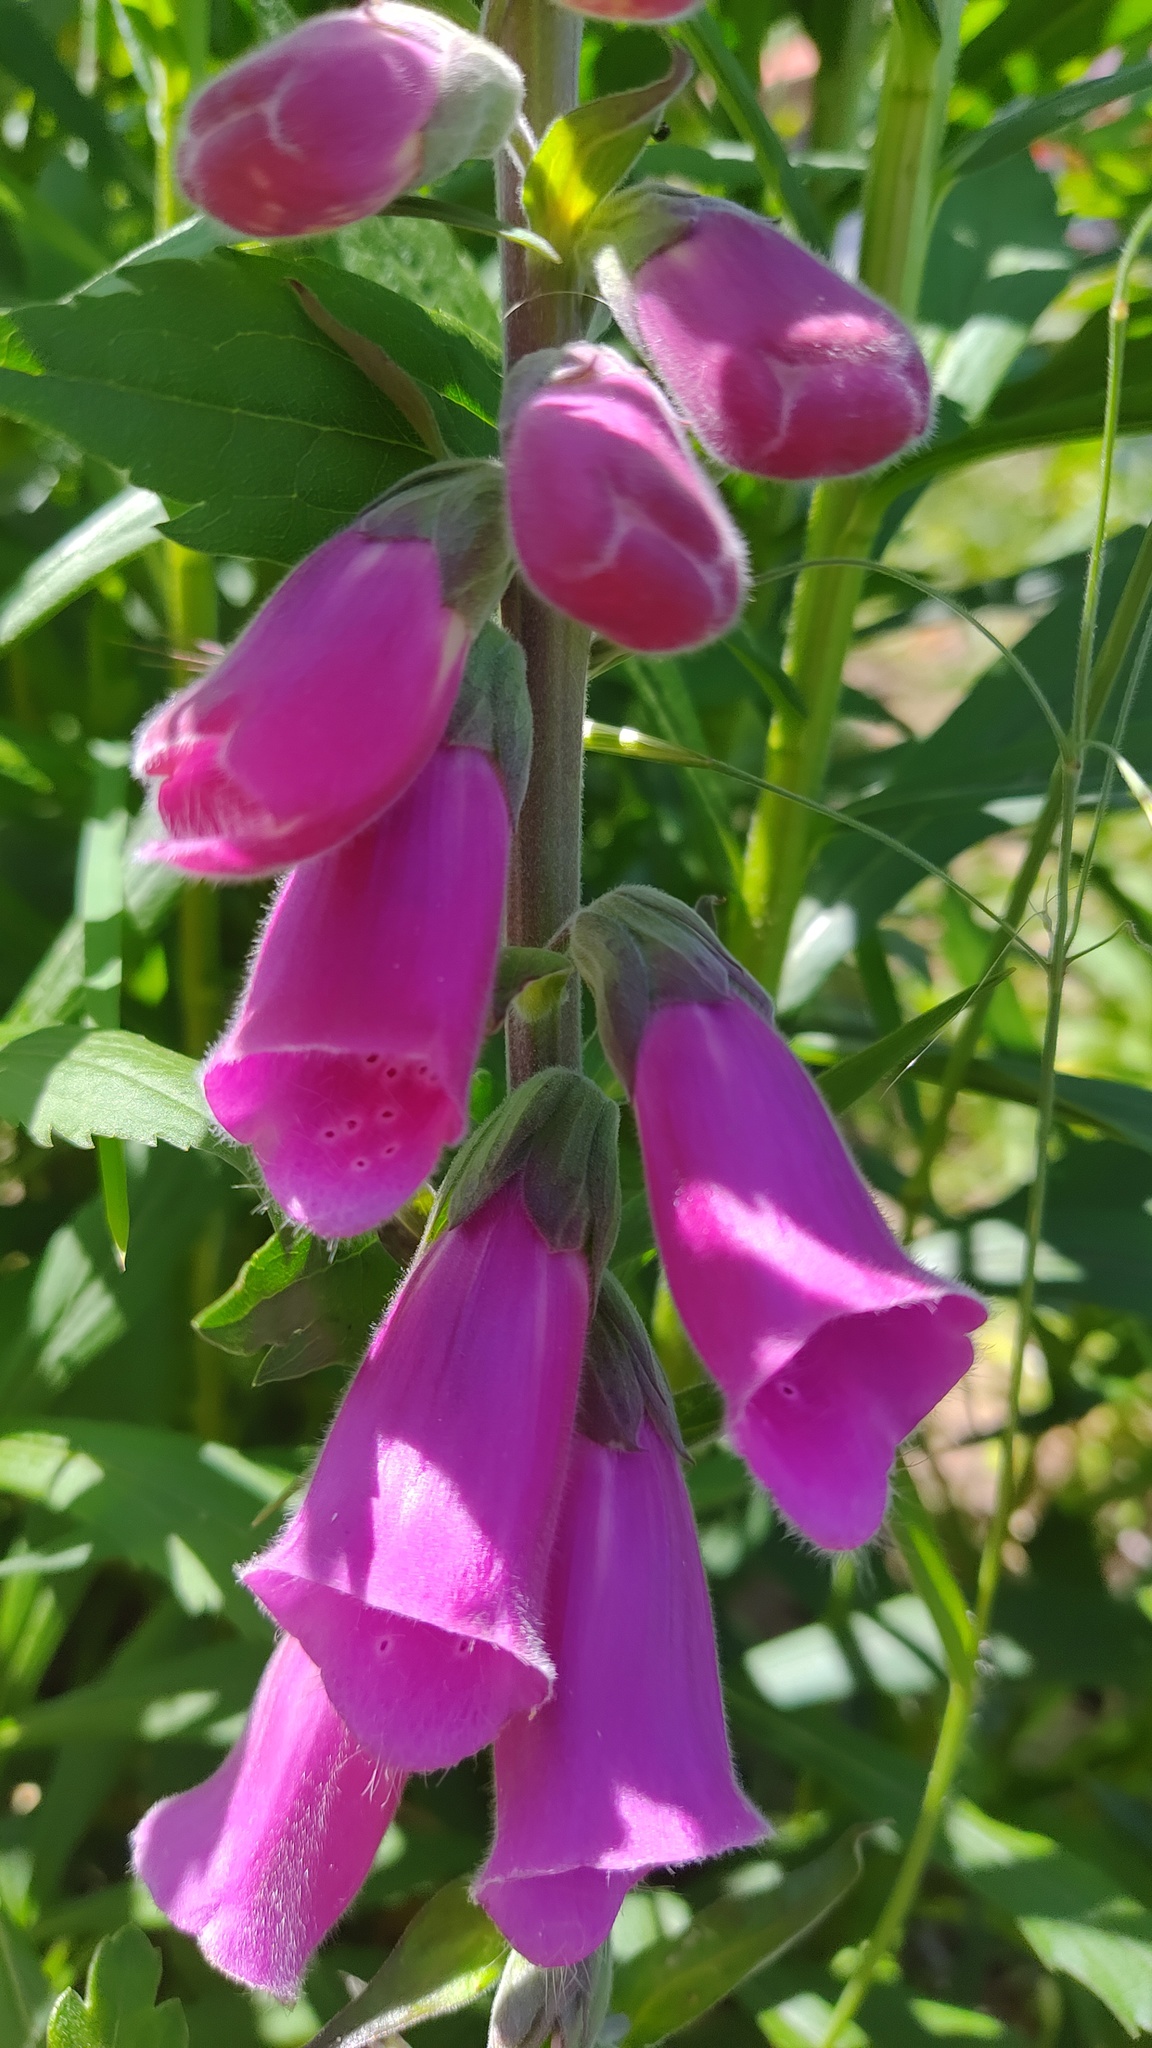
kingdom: Plantae
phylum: Tracheophyta
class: Magnoliopsida
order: Lamiales
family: Plantaginaceae
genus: Digitalis
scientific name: Digitalis purpurea
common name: Foxglove
